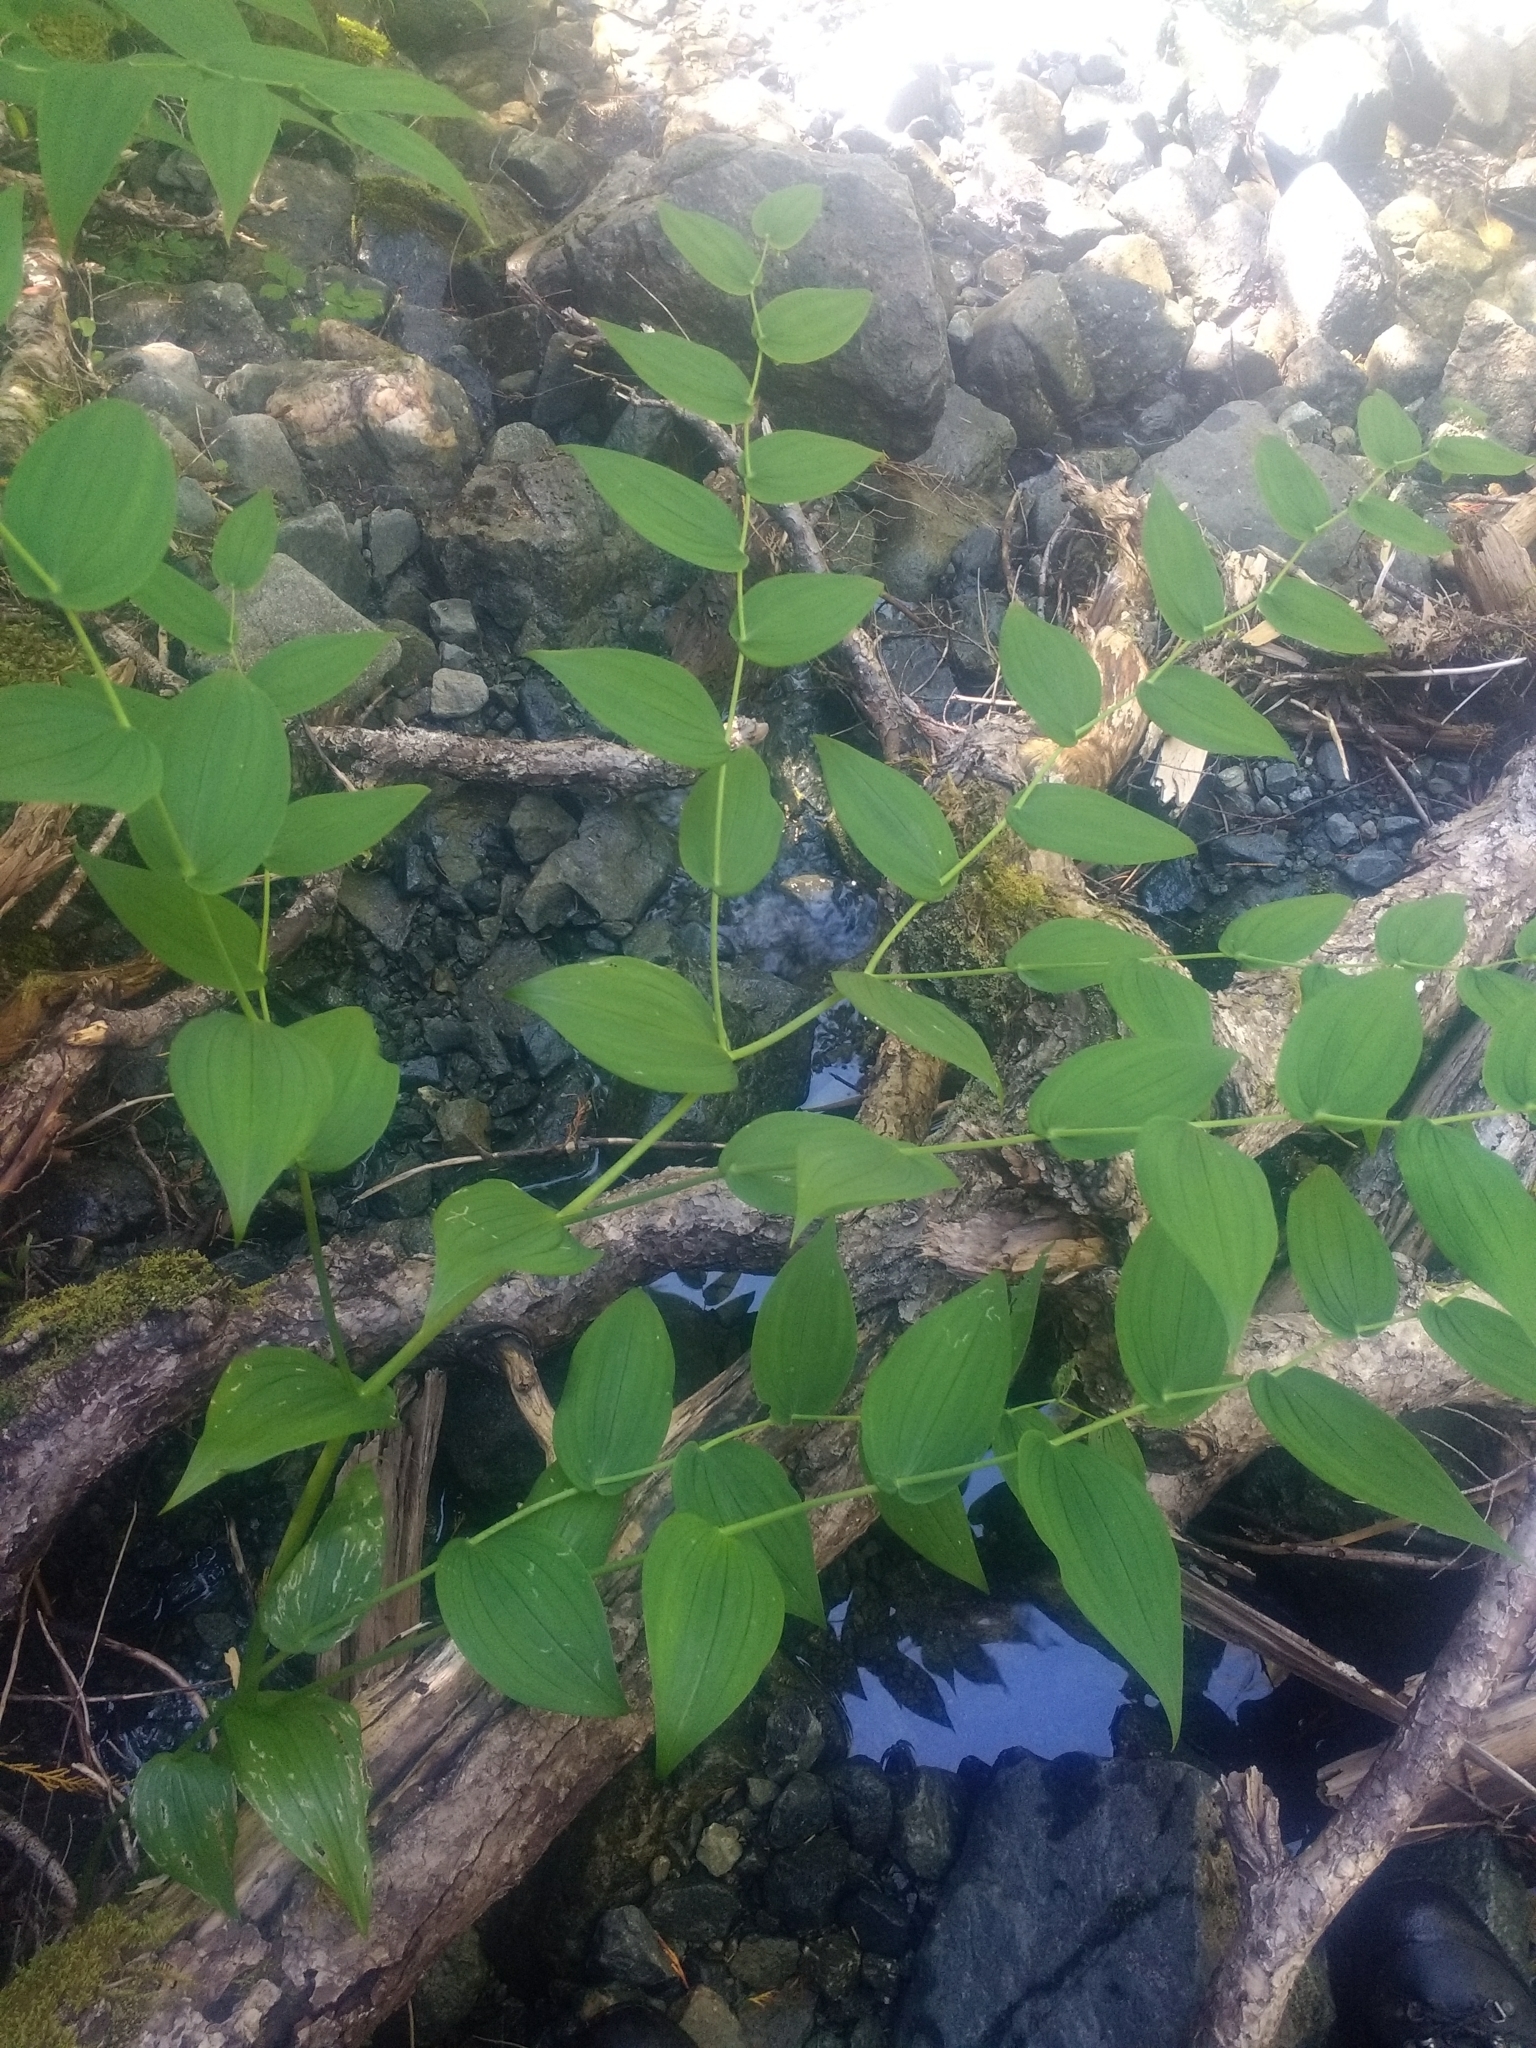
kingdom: Plantae
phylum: Tracheophyta
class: Liliopsida
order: Liliales
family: Liliaceae
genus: Streptopus
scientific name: Streptopus amplexifolius
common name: Clasp twisted stalk
